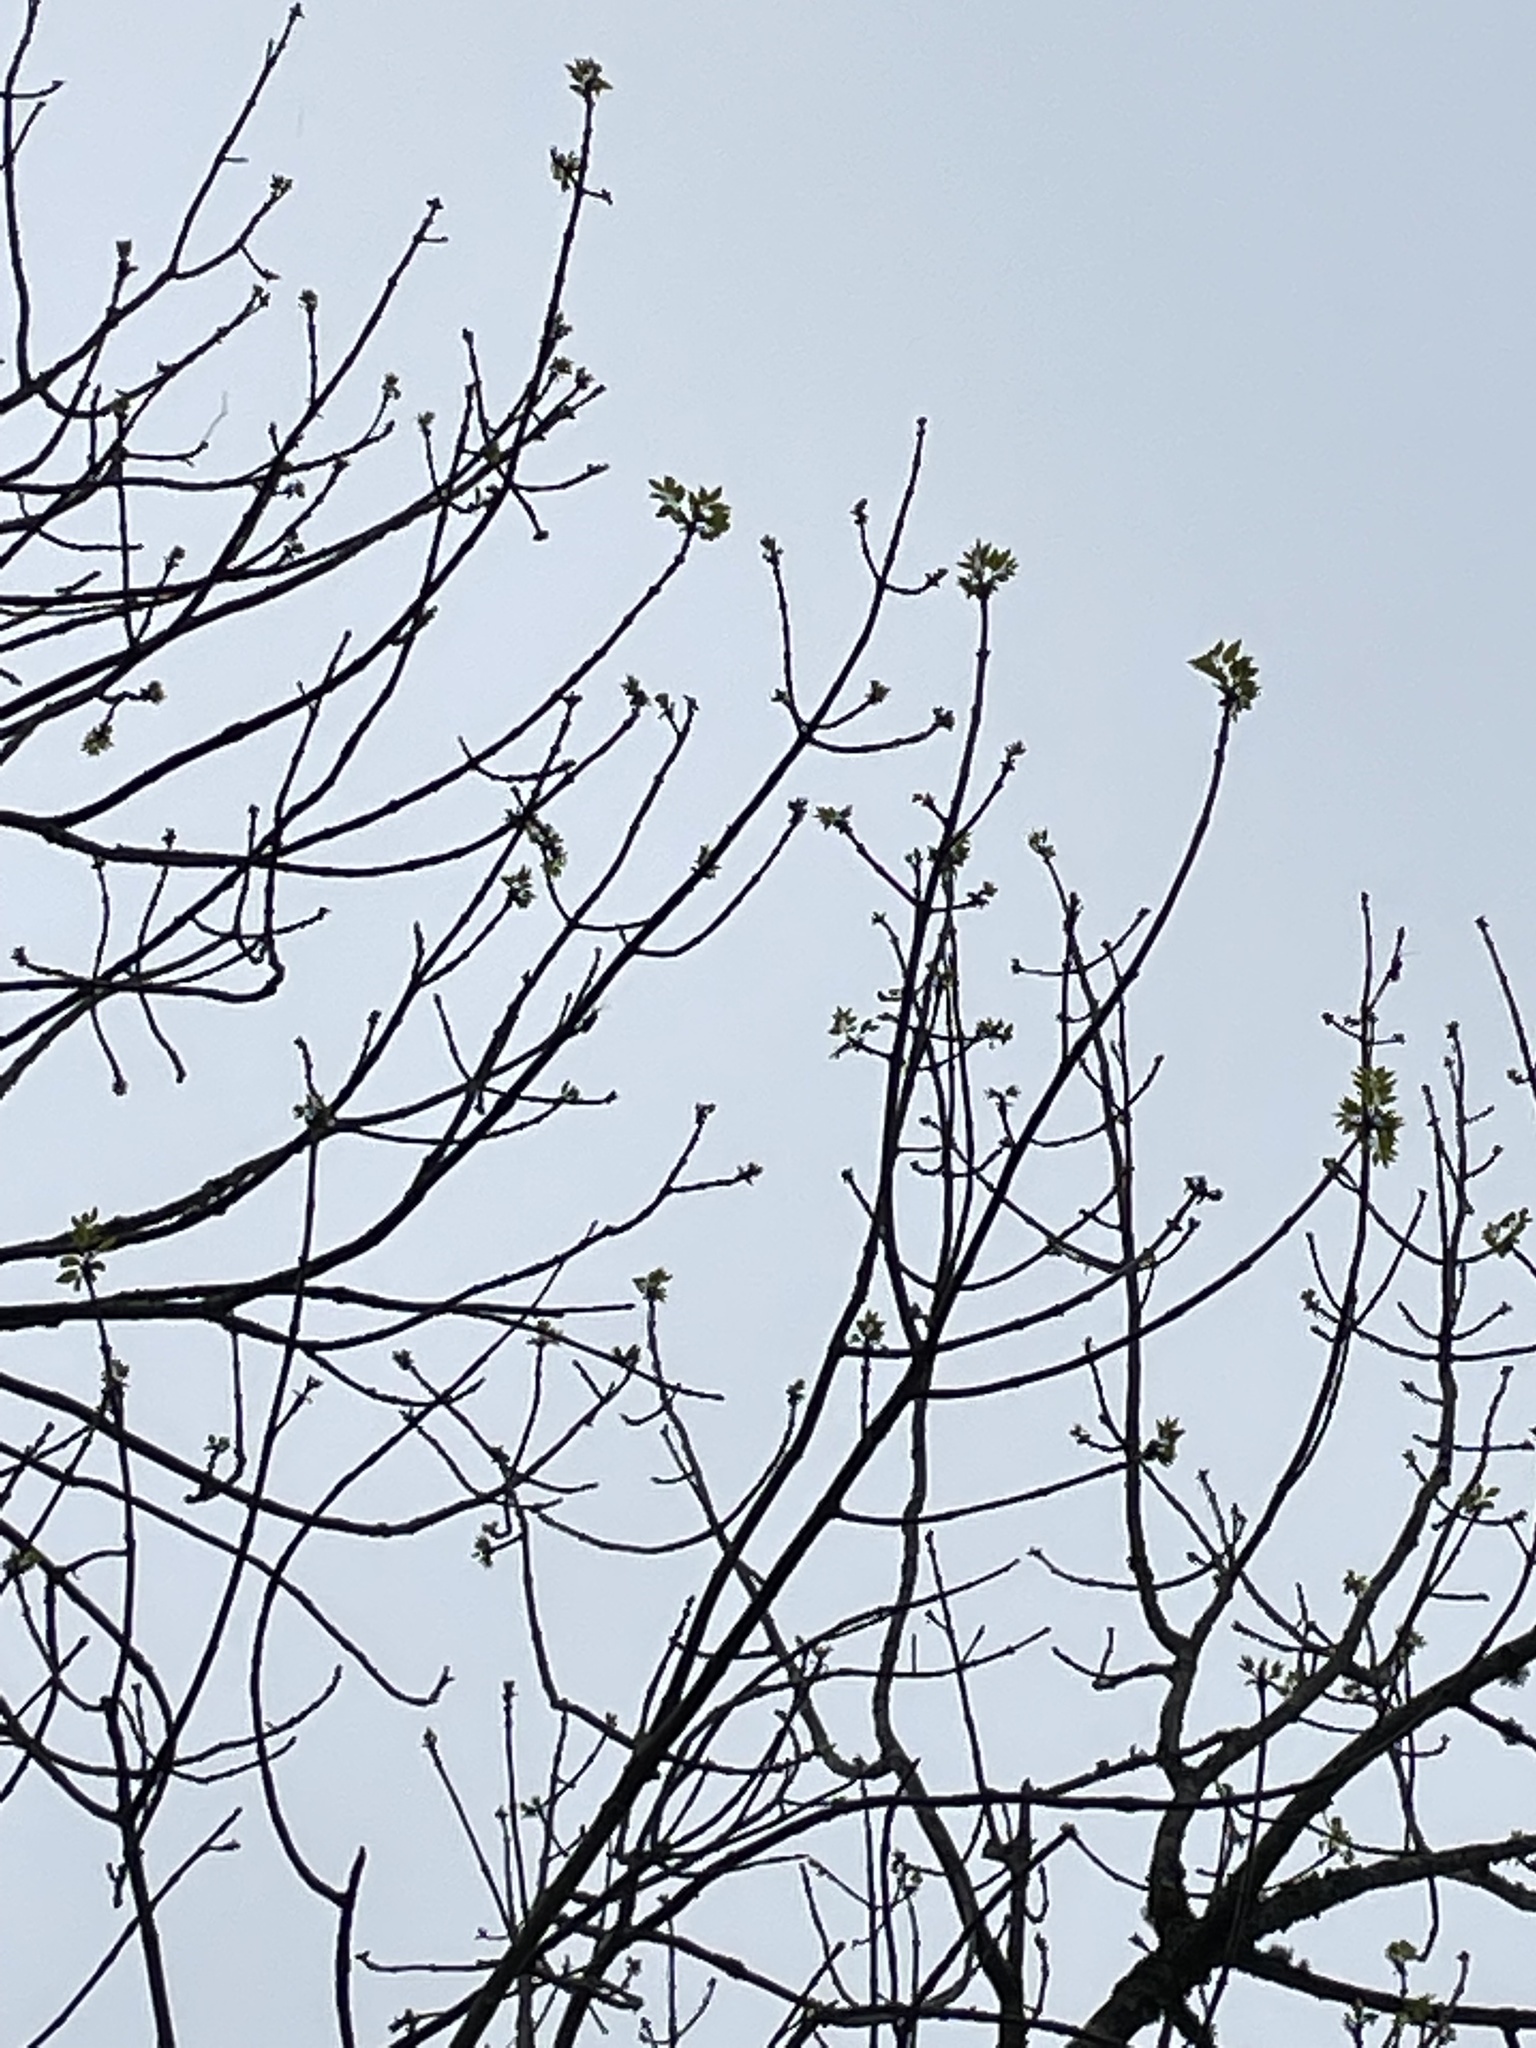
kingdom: Plantae
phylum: Tracheophyta
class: Magnoliopsida
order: Lamiales
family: Oleaceae
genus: Fraxinus
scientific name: Fraxinus albicans
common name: Texas ash
